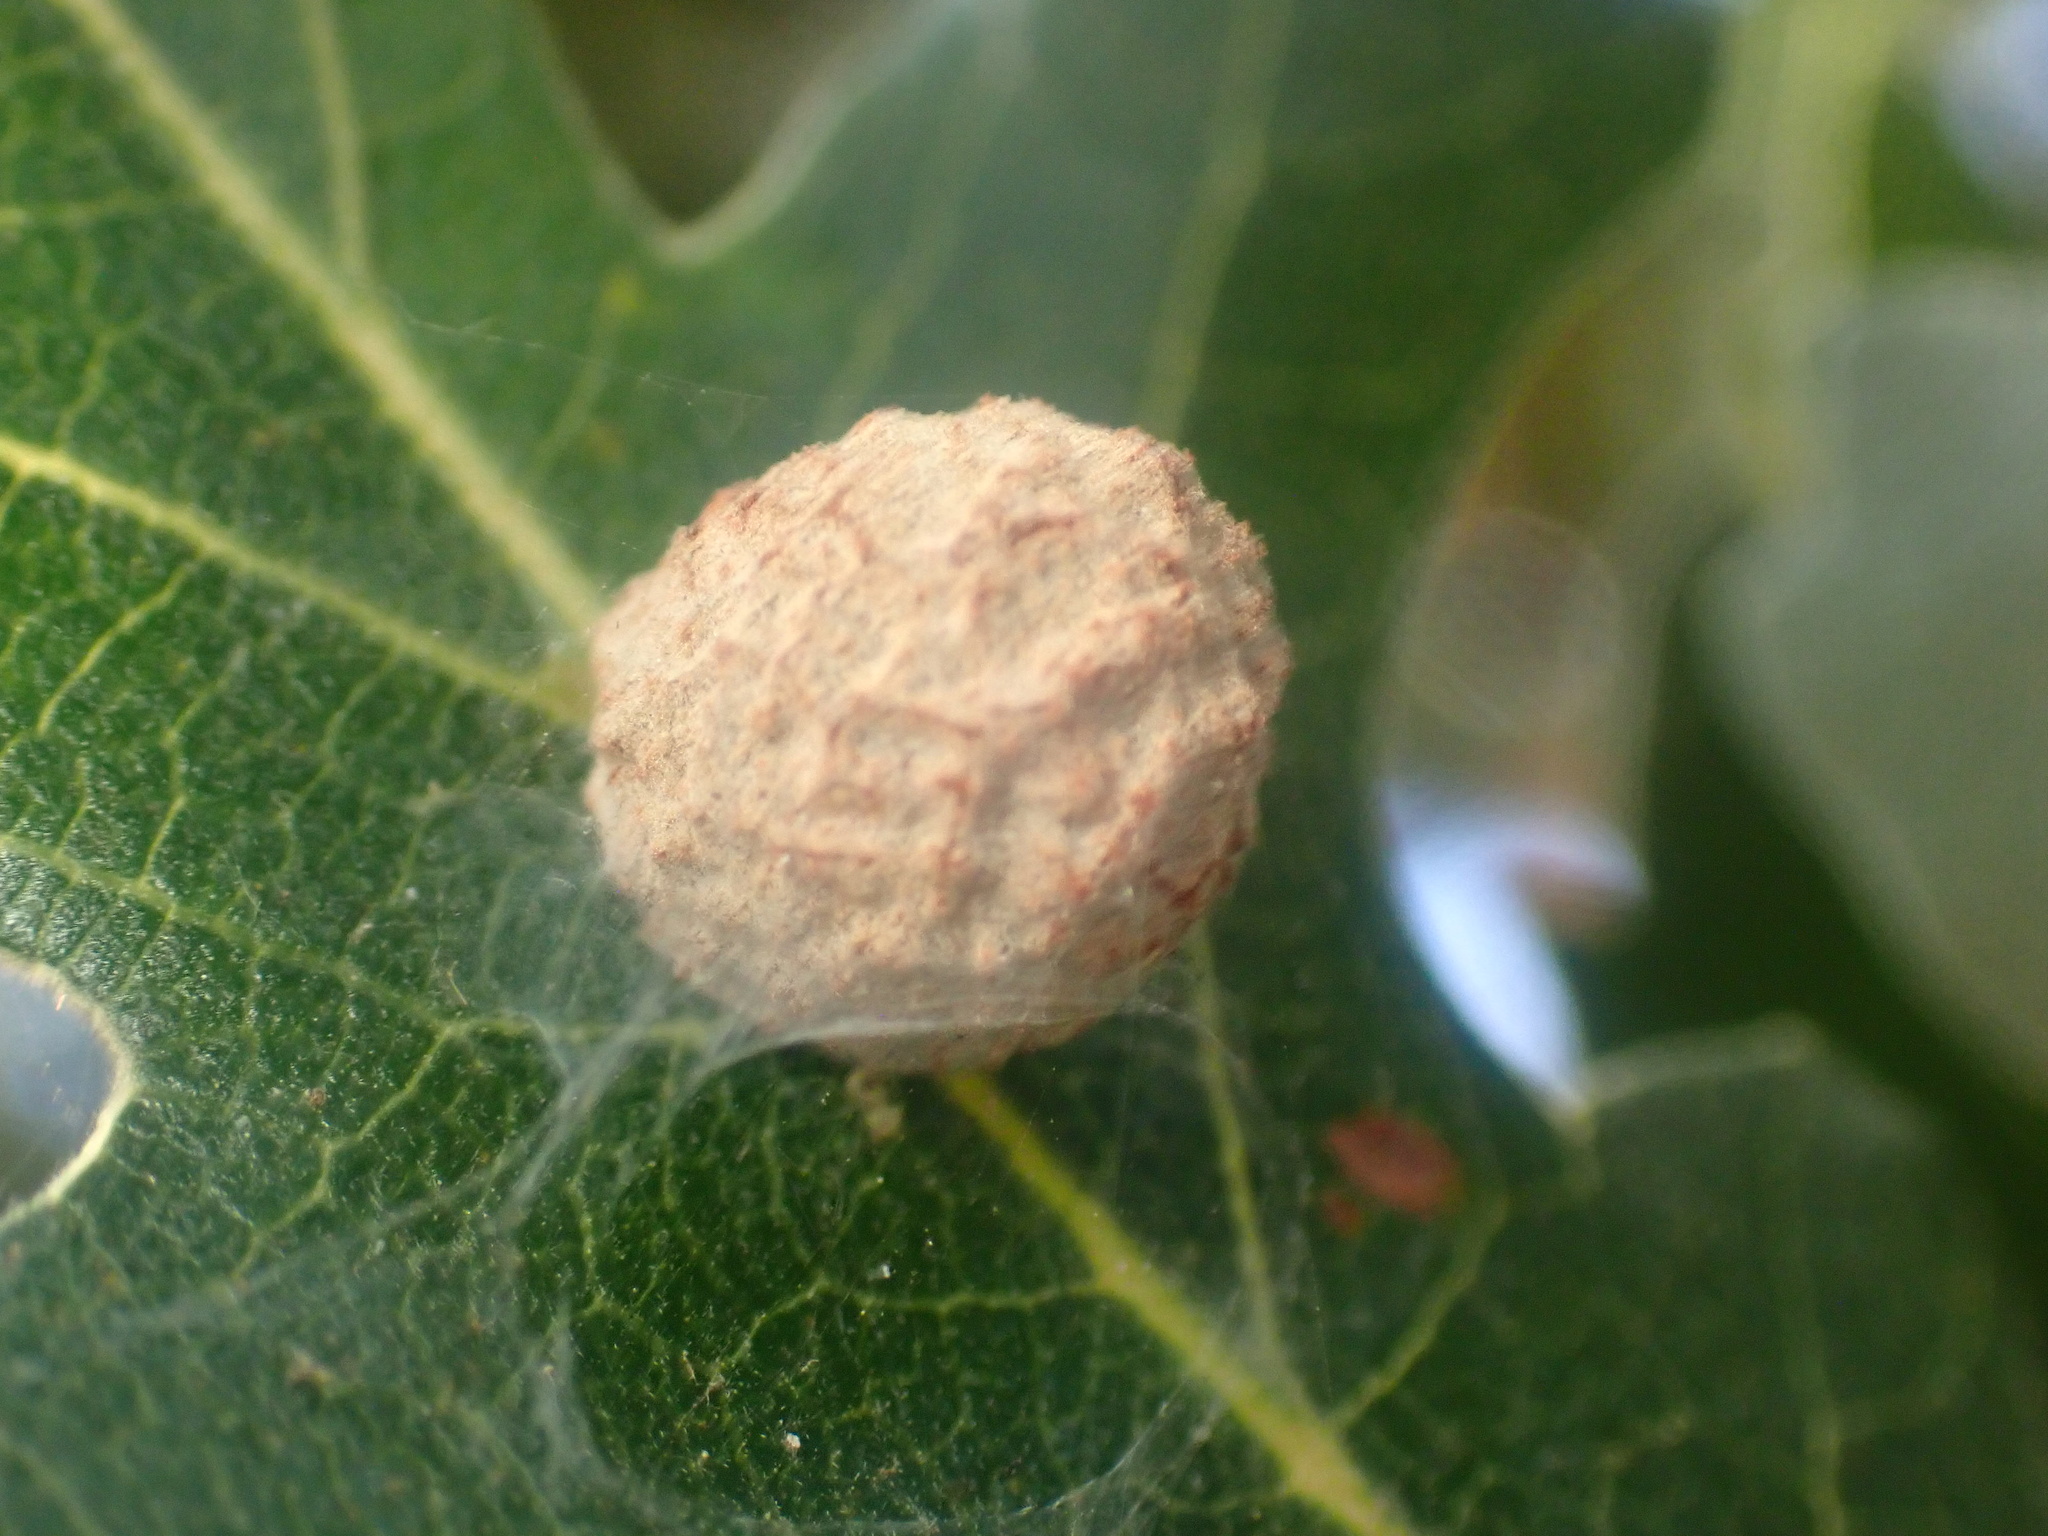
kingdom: Animalia
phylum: Arthropoda
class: Insecta
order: Hymenoptera
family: Cynipidae
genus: Cynips
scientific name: Cynips conspicua
